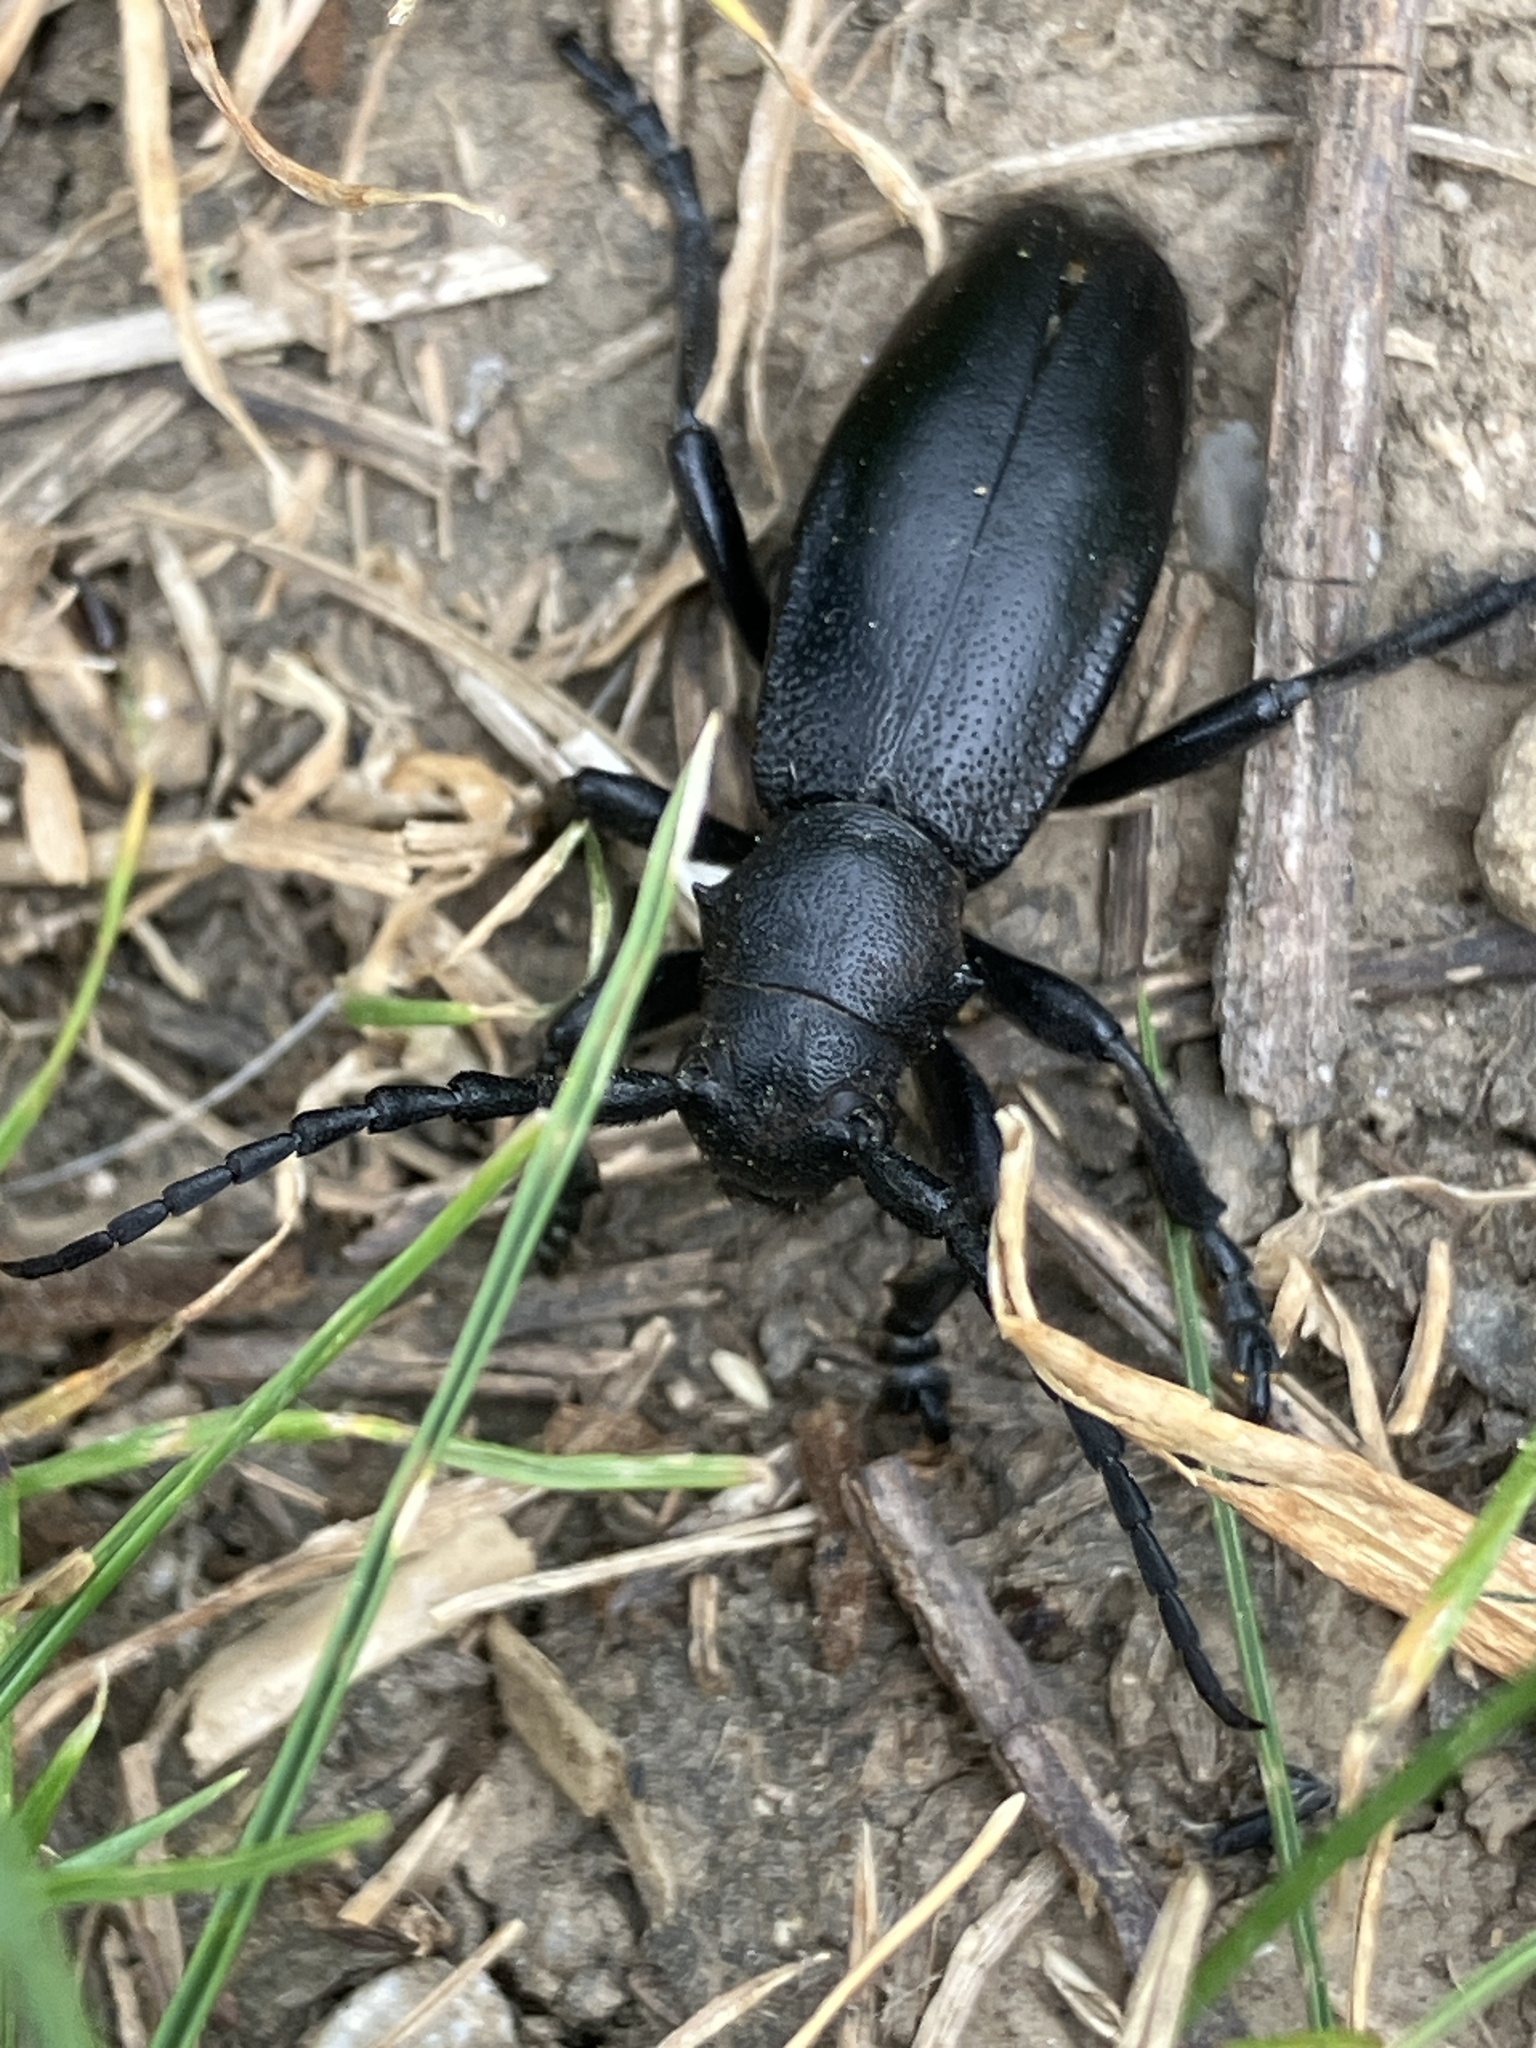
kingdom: Animalia
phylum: Arthropoda
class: Insecta
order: Coleoptera
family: Cerambycidae
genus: Dorcadion
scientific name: Dorcadion aethiops
